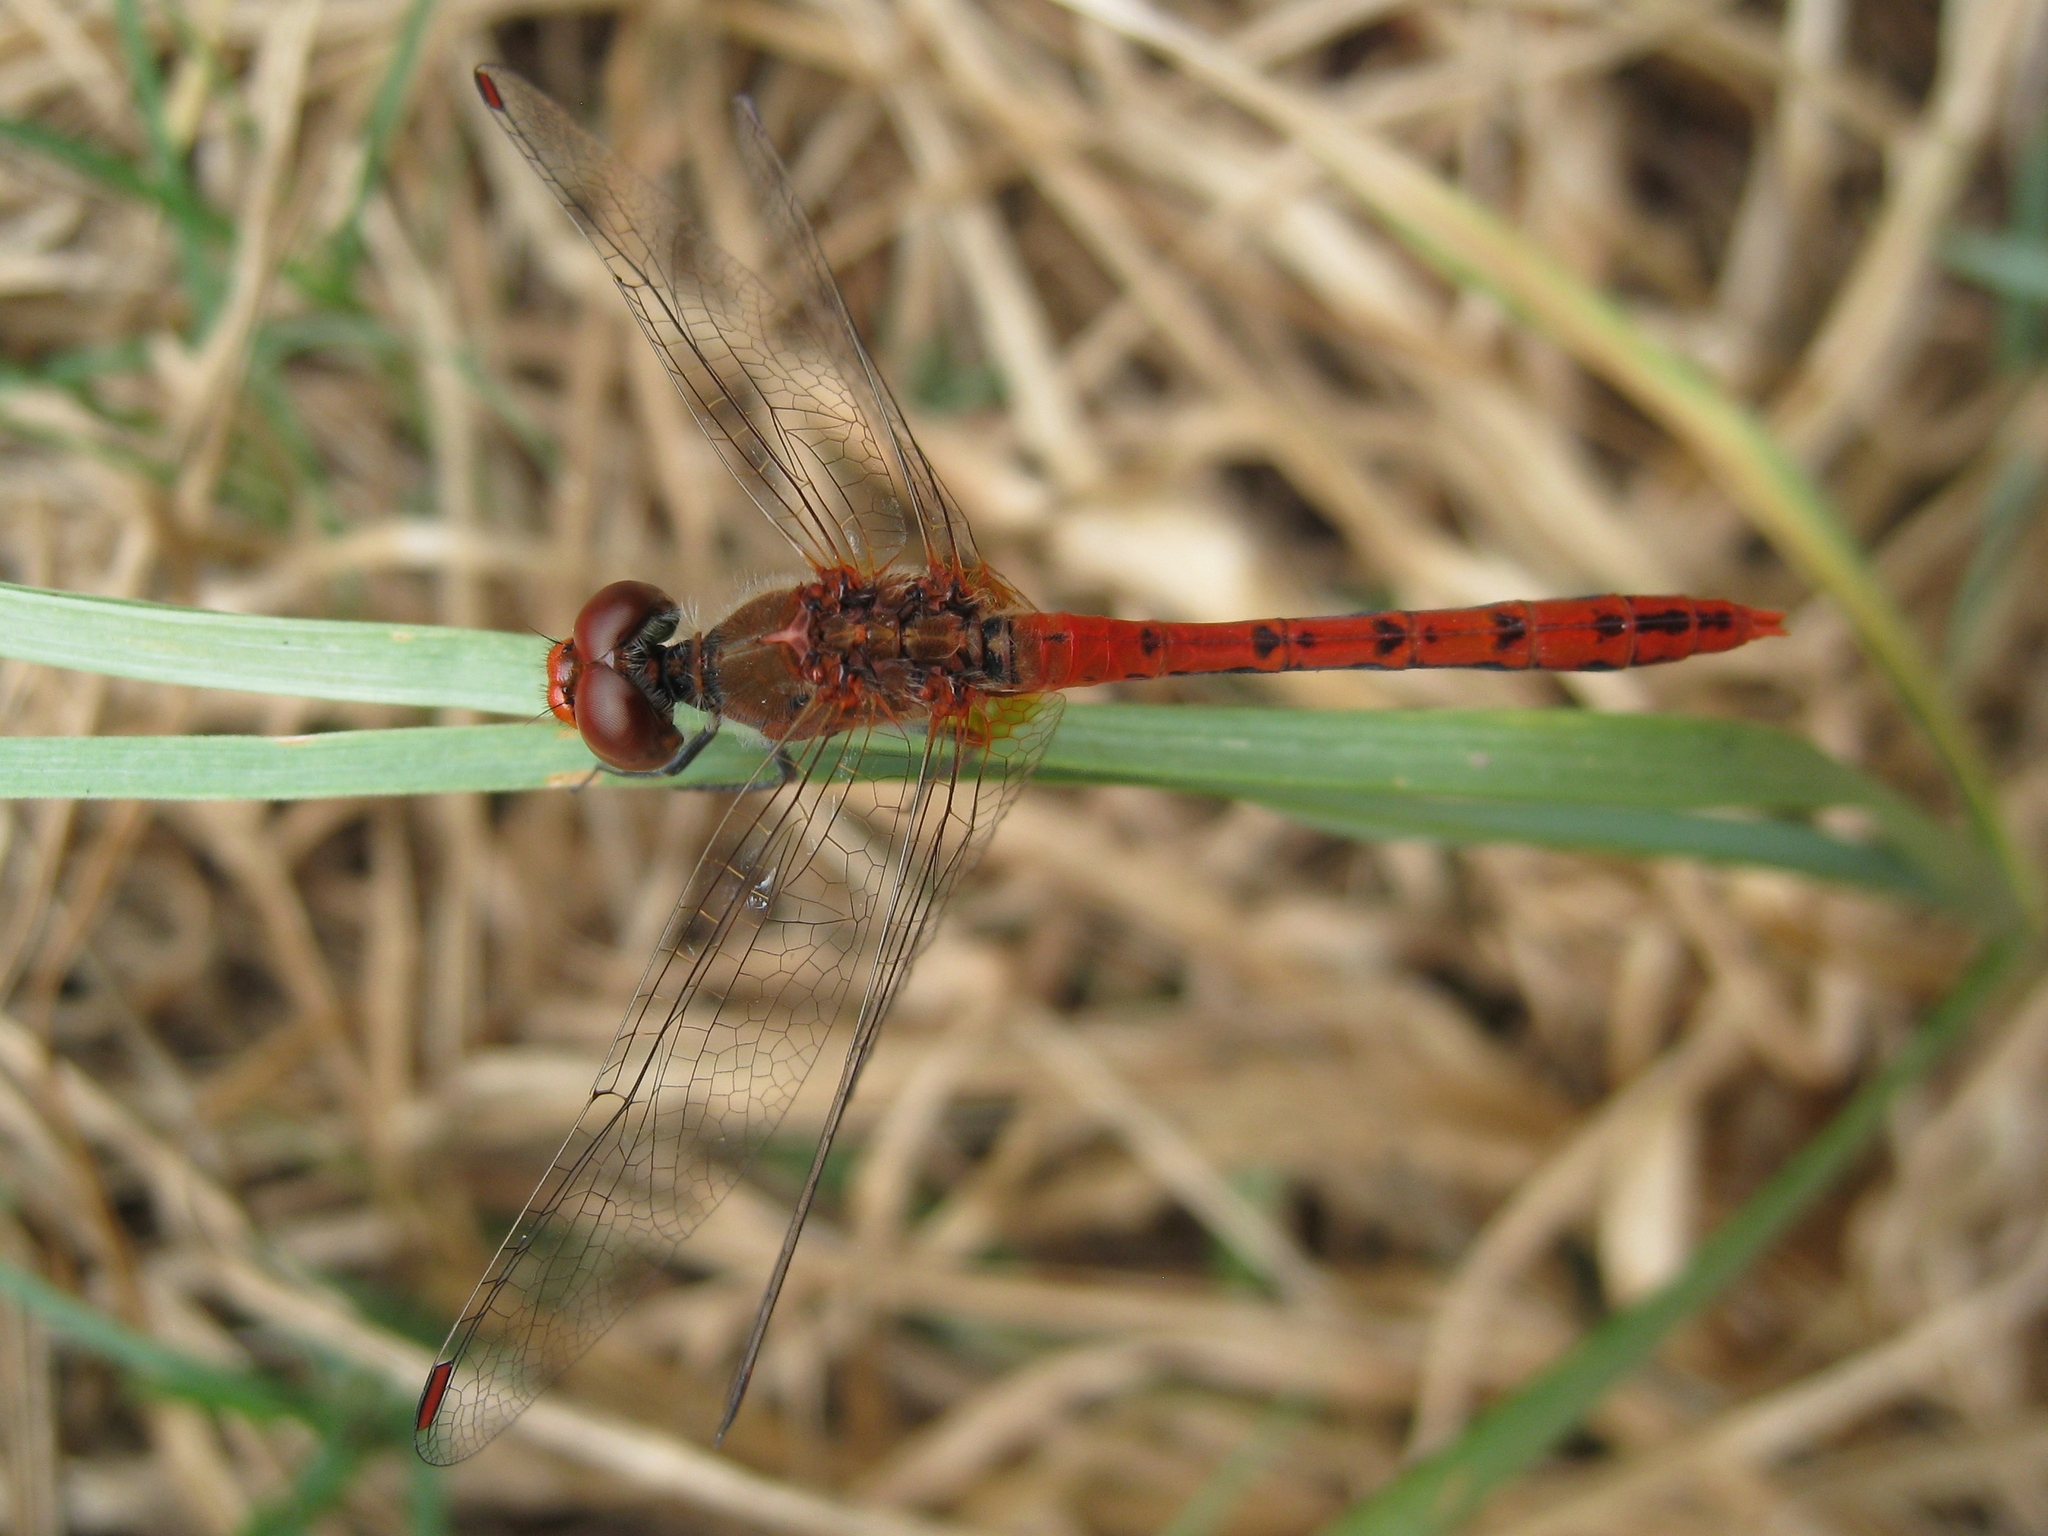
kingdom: Animalia
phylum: Arthropoda
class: Insecta
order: Odonata
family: Libellulidae
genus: Diplacodes
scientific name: Diplacodes bipunctata
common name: Red percher dragonfly
